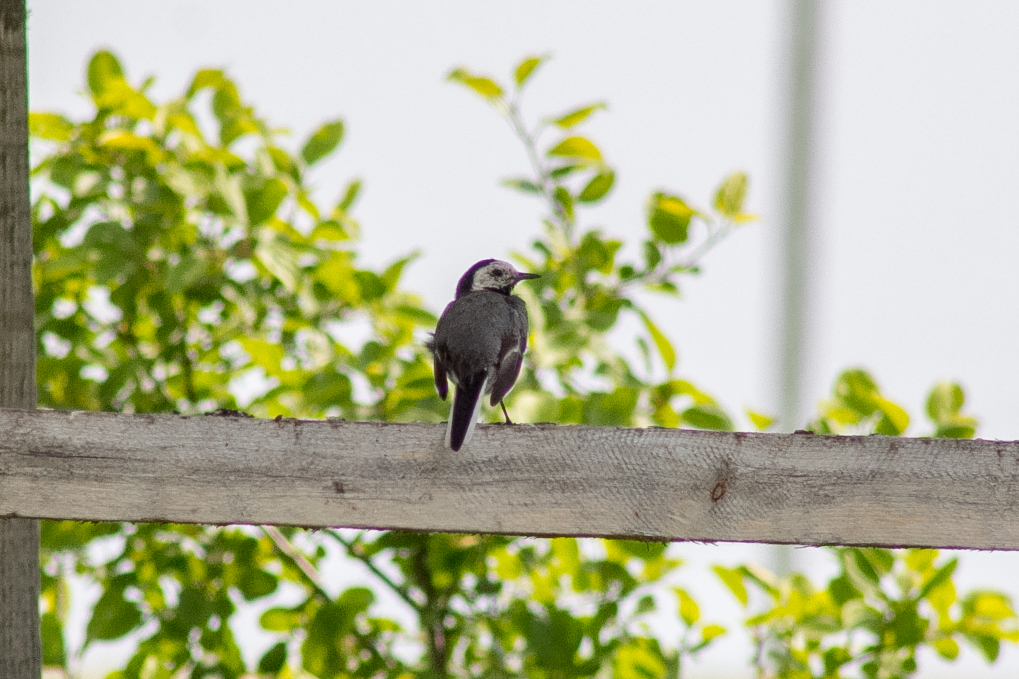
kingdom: Animalia
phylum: Chordata
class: Aves
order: Passeriformes
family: Motacillidae
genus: Motacilla
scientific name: Motacilla alba
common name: White wagtail
